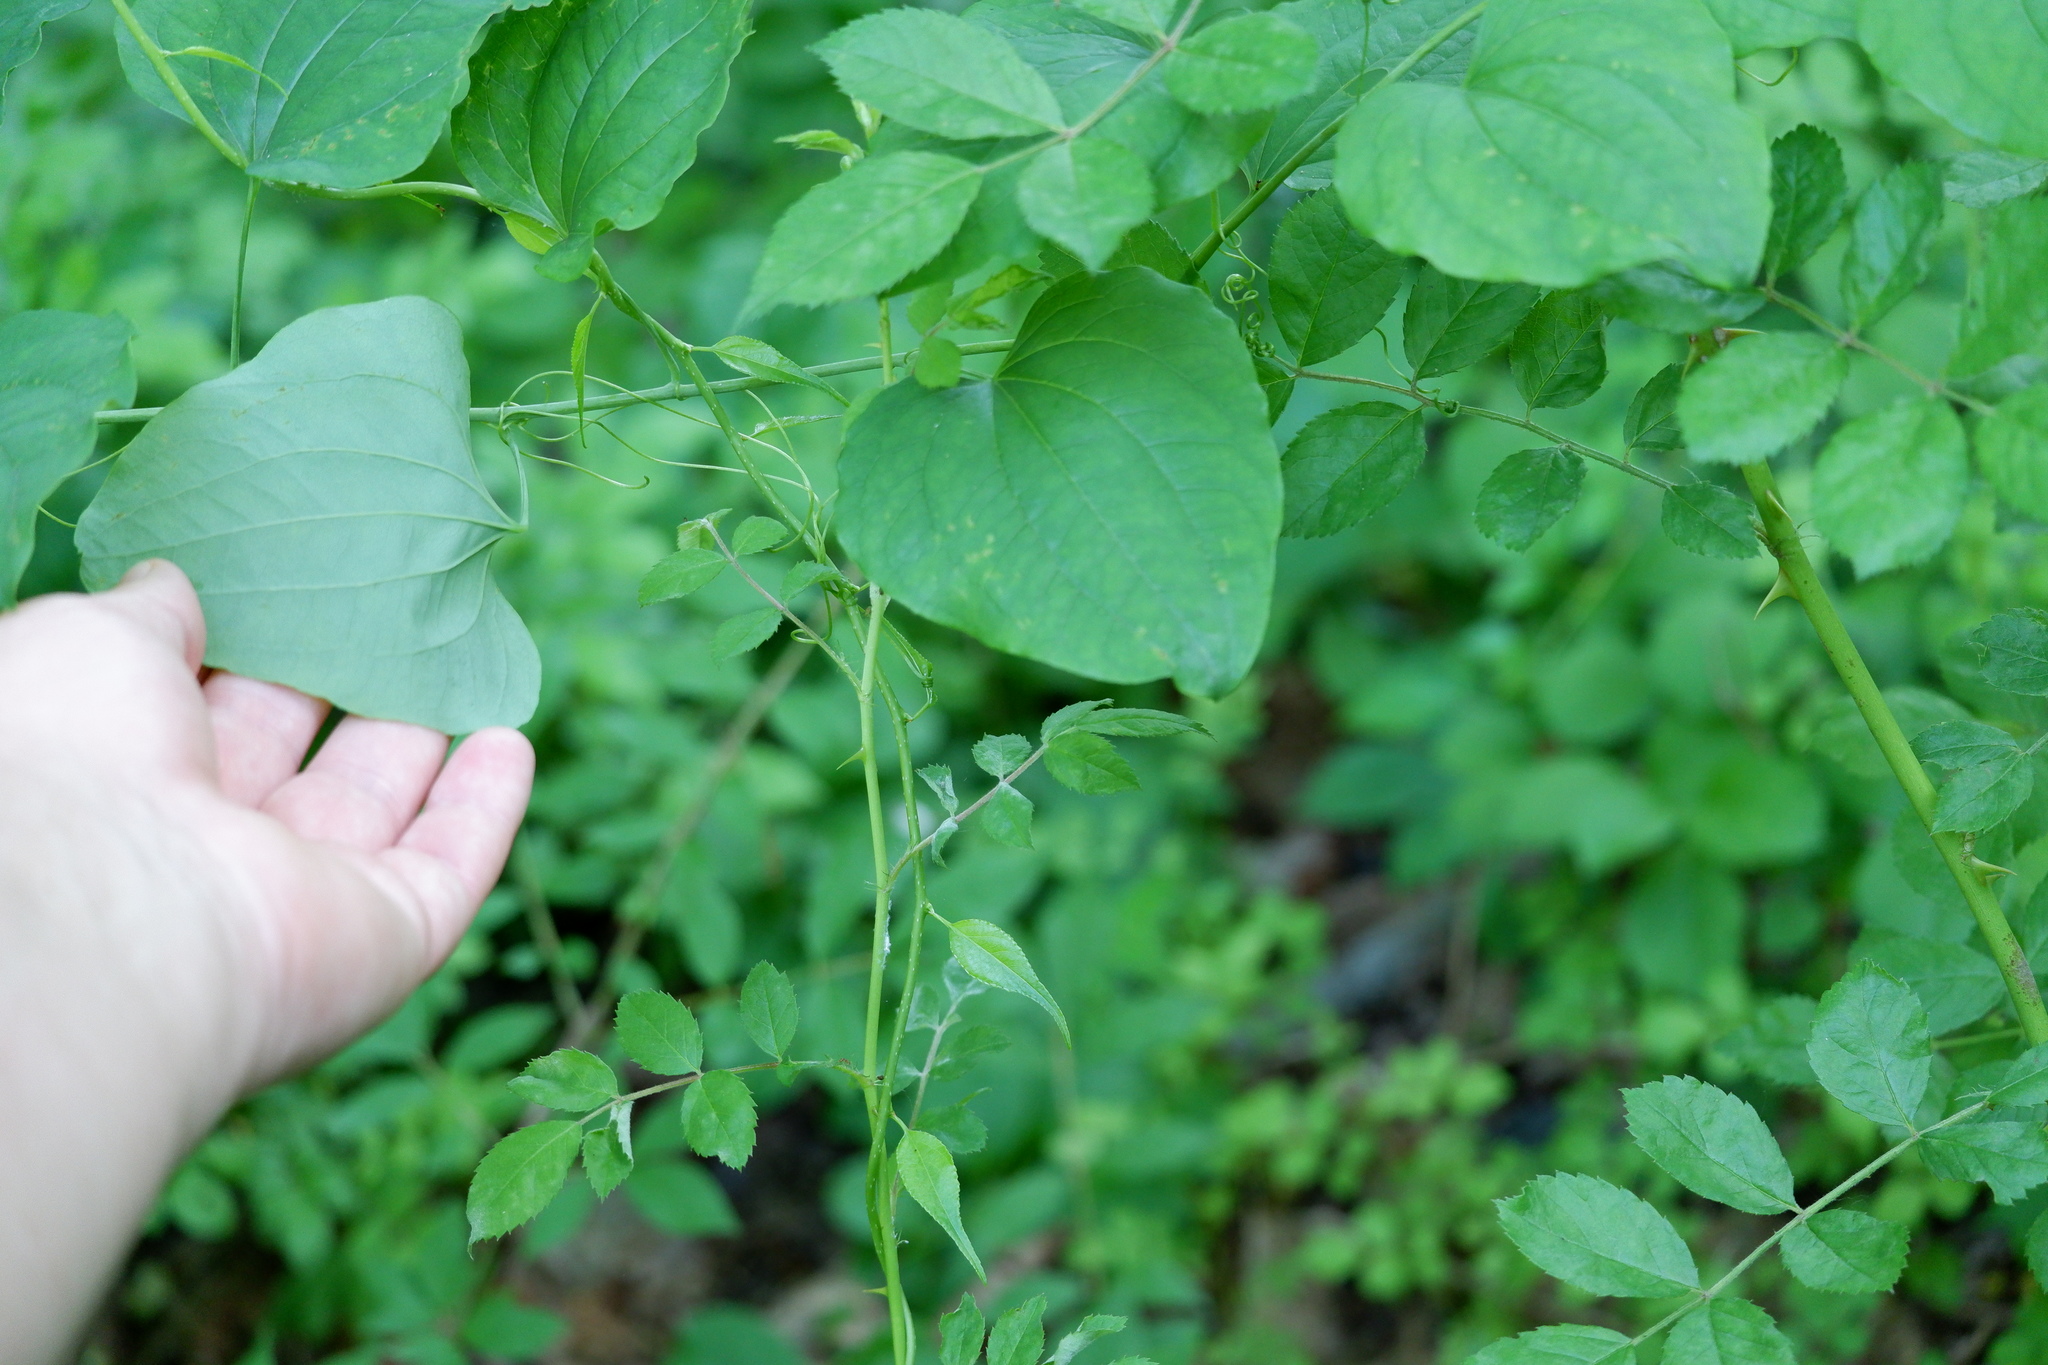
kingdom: Plantae
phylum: Tracheophyta
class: Liliopsida
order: Liliales
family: Smilacaceae
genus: Smilax
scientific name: Smilax herbacea
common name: Jacob's-ladder
